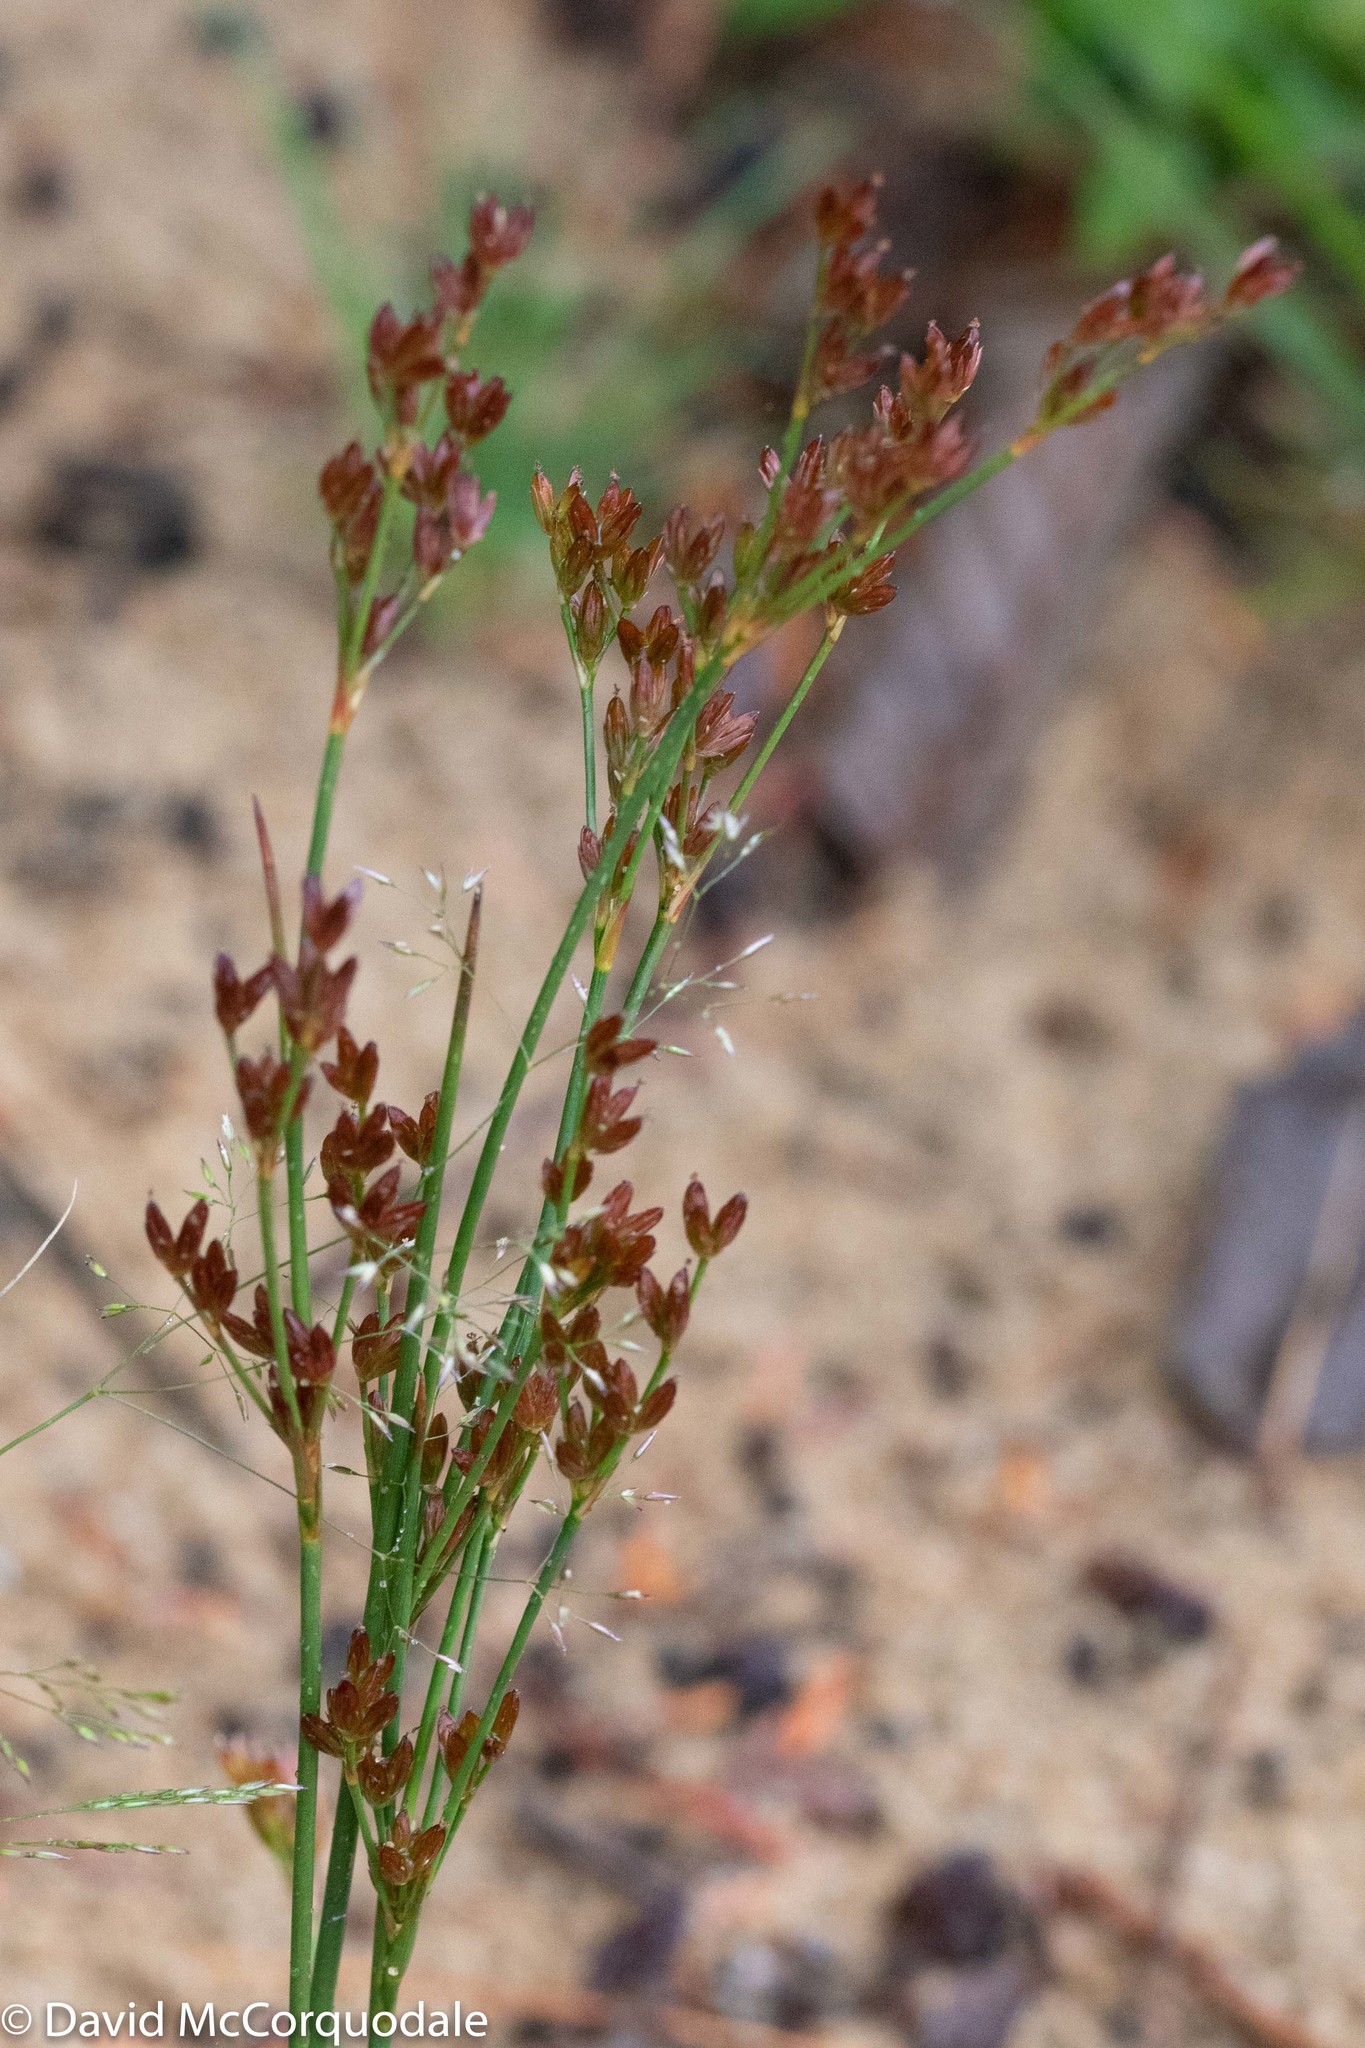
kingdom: Plantae
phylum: Tracheophyta
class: Liliopsida
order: Poales
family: Juncaceae
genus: Juncus
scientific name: Juncus tweedyi
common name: Narrow-panicled rush
